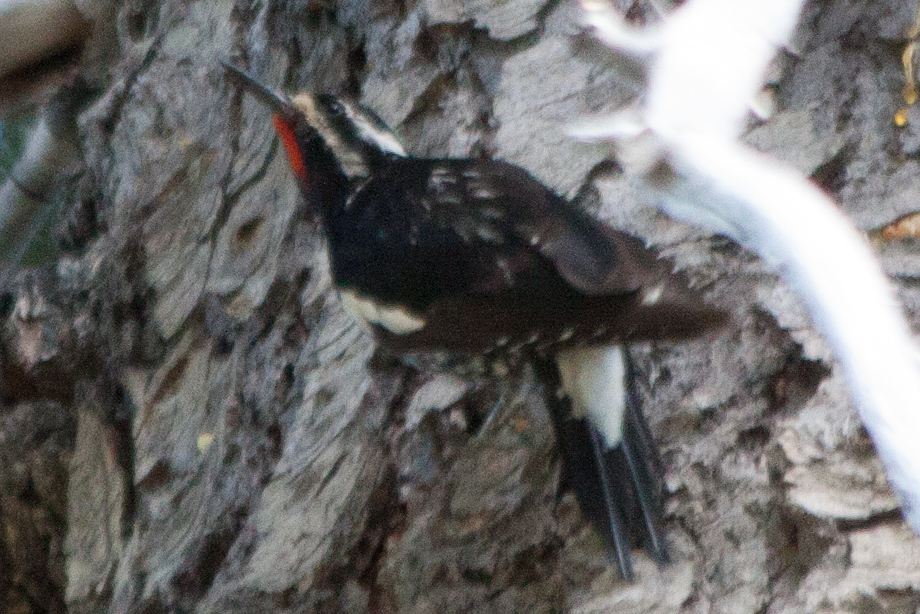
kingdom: Animalia
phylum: Chordata
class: Aves
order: Piciformes
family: Picidae
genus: Sphyrapicus
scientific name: Sphyrapicus thyroideus
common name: Williamson's sapsucker
